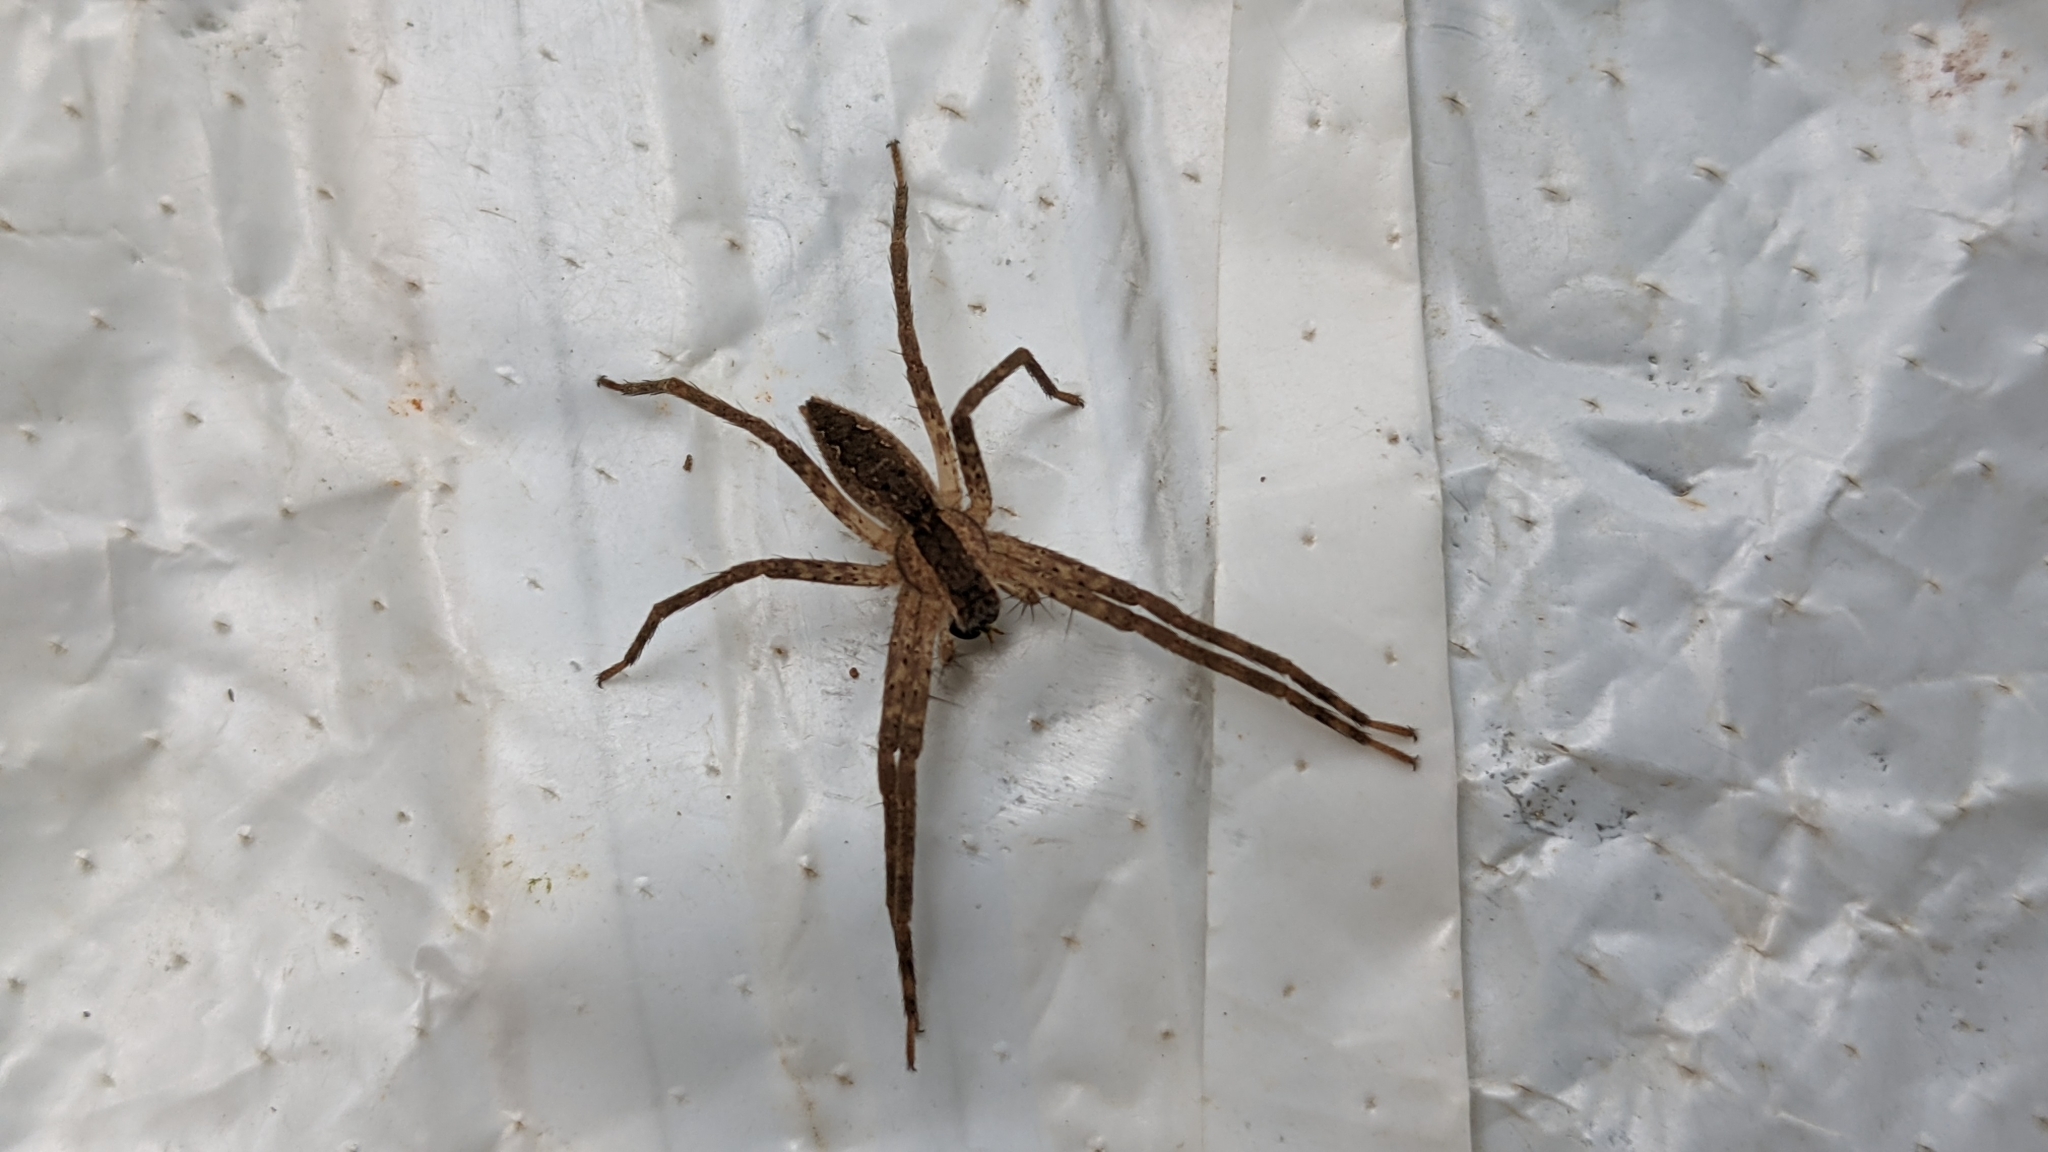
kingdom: Animalia
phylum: Arthropoda
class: Arachnida
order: Araneae
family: Pisauridae
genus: Pisaurina
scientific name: Pisaurina mira
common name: American nursery web spider
